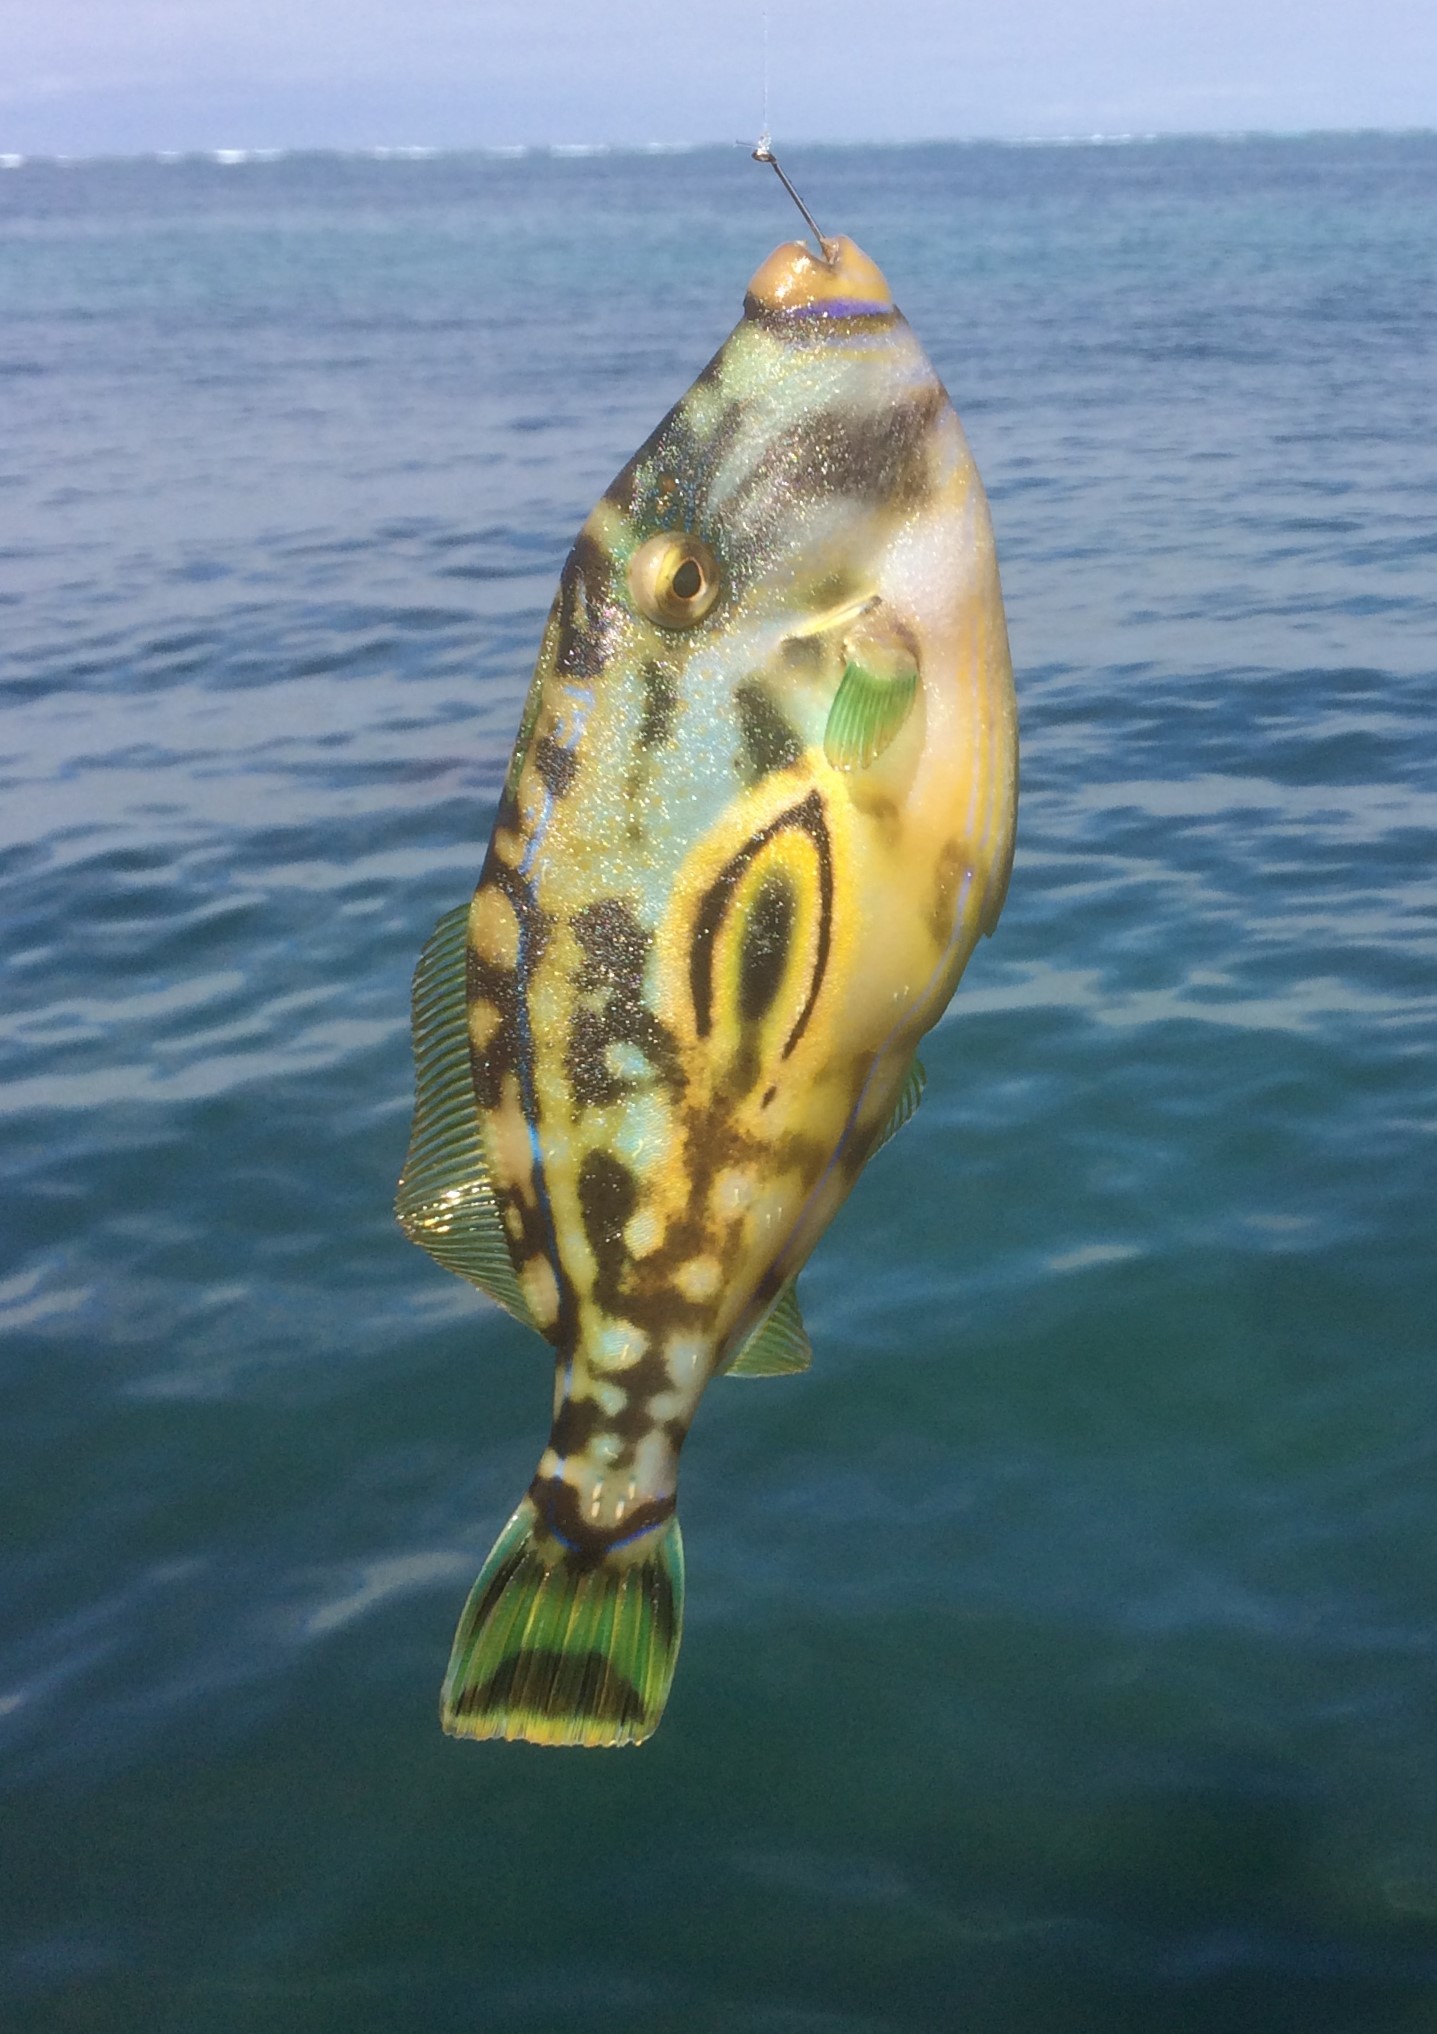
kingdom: Animalia
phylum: Chordata
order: Tetraodontiformes
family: Monacanthidae
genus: Meuschenia
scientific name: Meuschenia hippocrepis
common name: Horse-shoe leatherjacket
